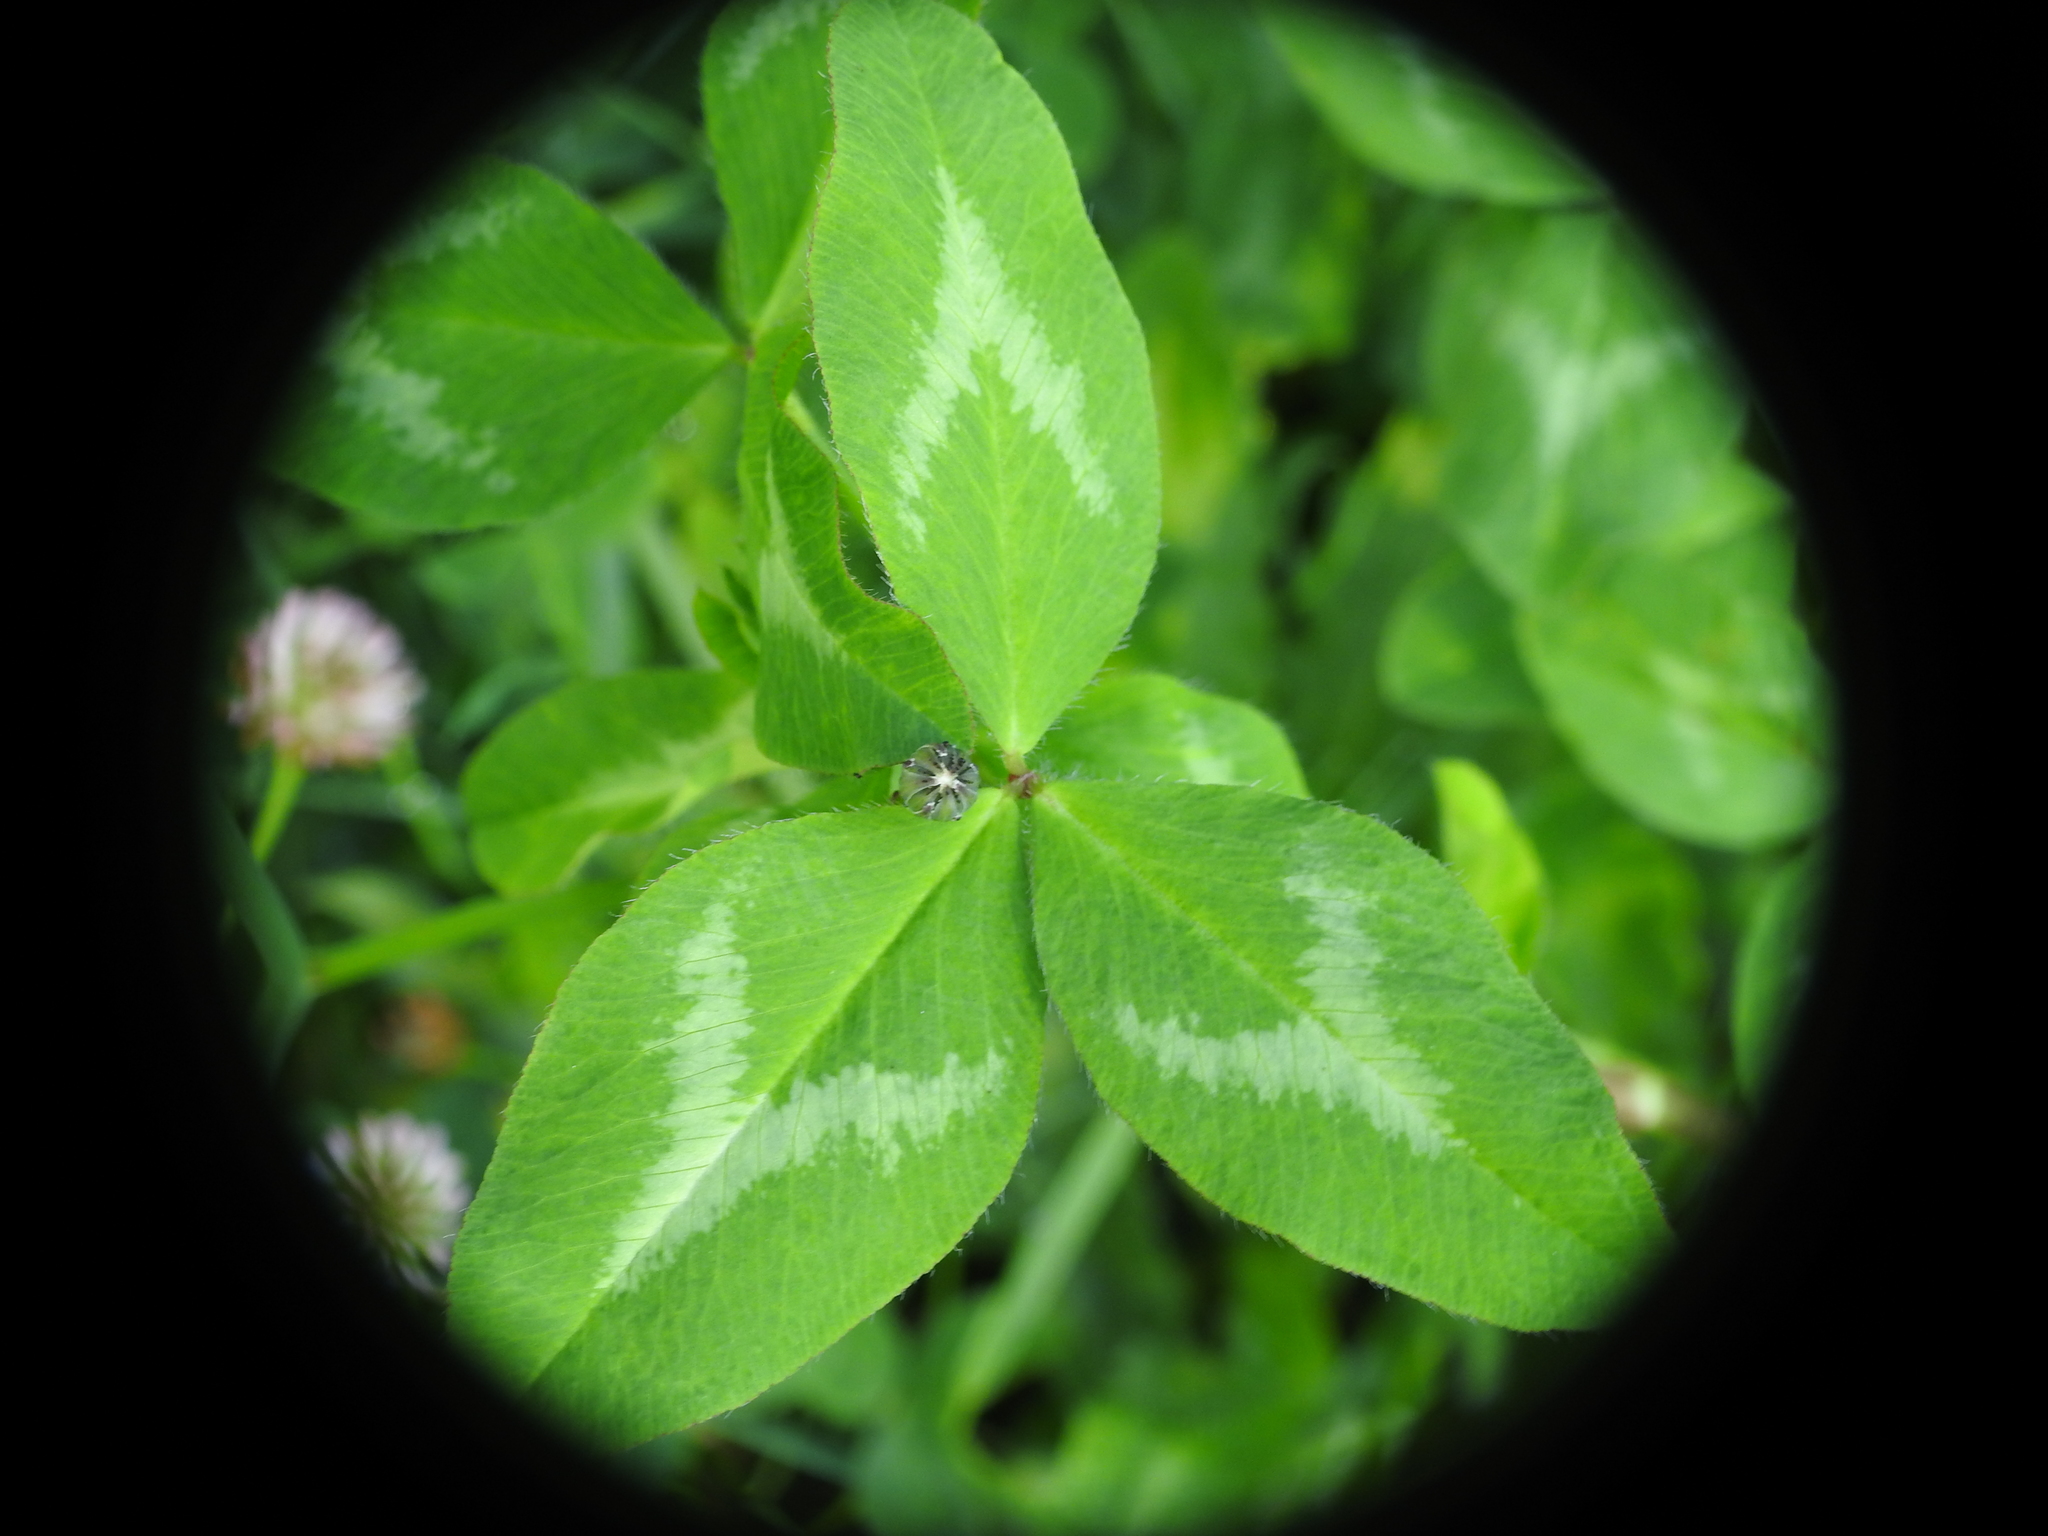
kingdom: Plantae
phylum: Tracheophyta
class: Magnoliopsida
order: Fabales
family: Fabaceae
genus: Trifolium
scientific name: Trifolium pratense
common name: Red clover
